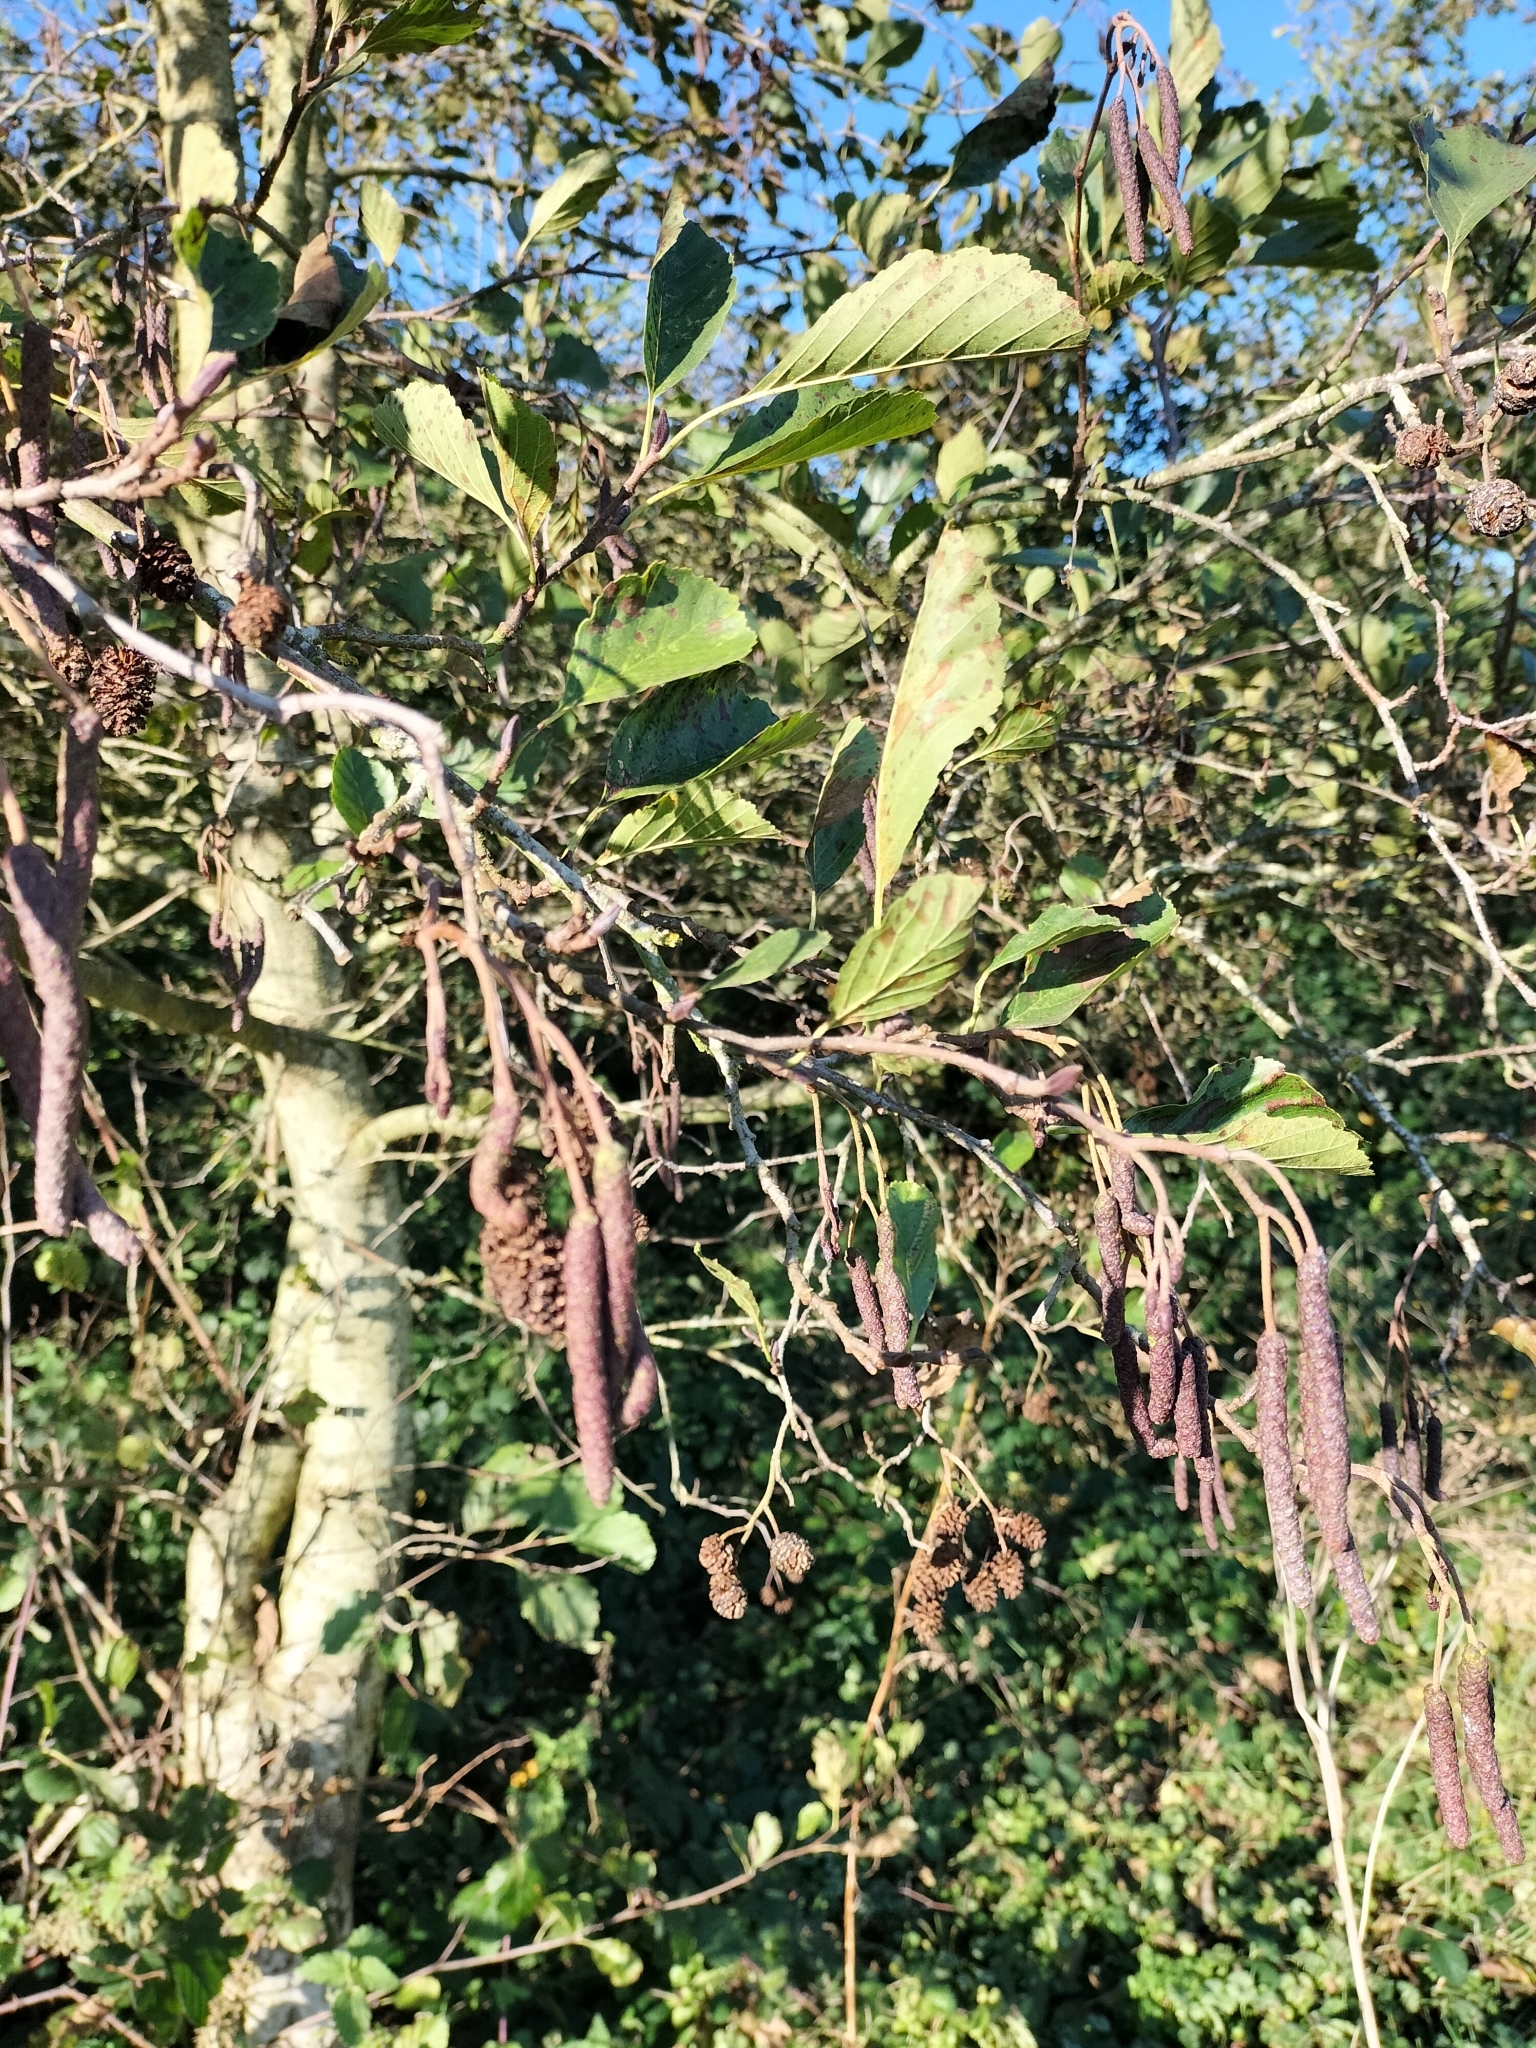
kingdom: Plantae
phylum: Tracheophyta
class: Magnoliopsida
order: Fagales
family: Betulaceae
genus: Alnus
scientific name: Alnus glutinosa
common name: Black alder
